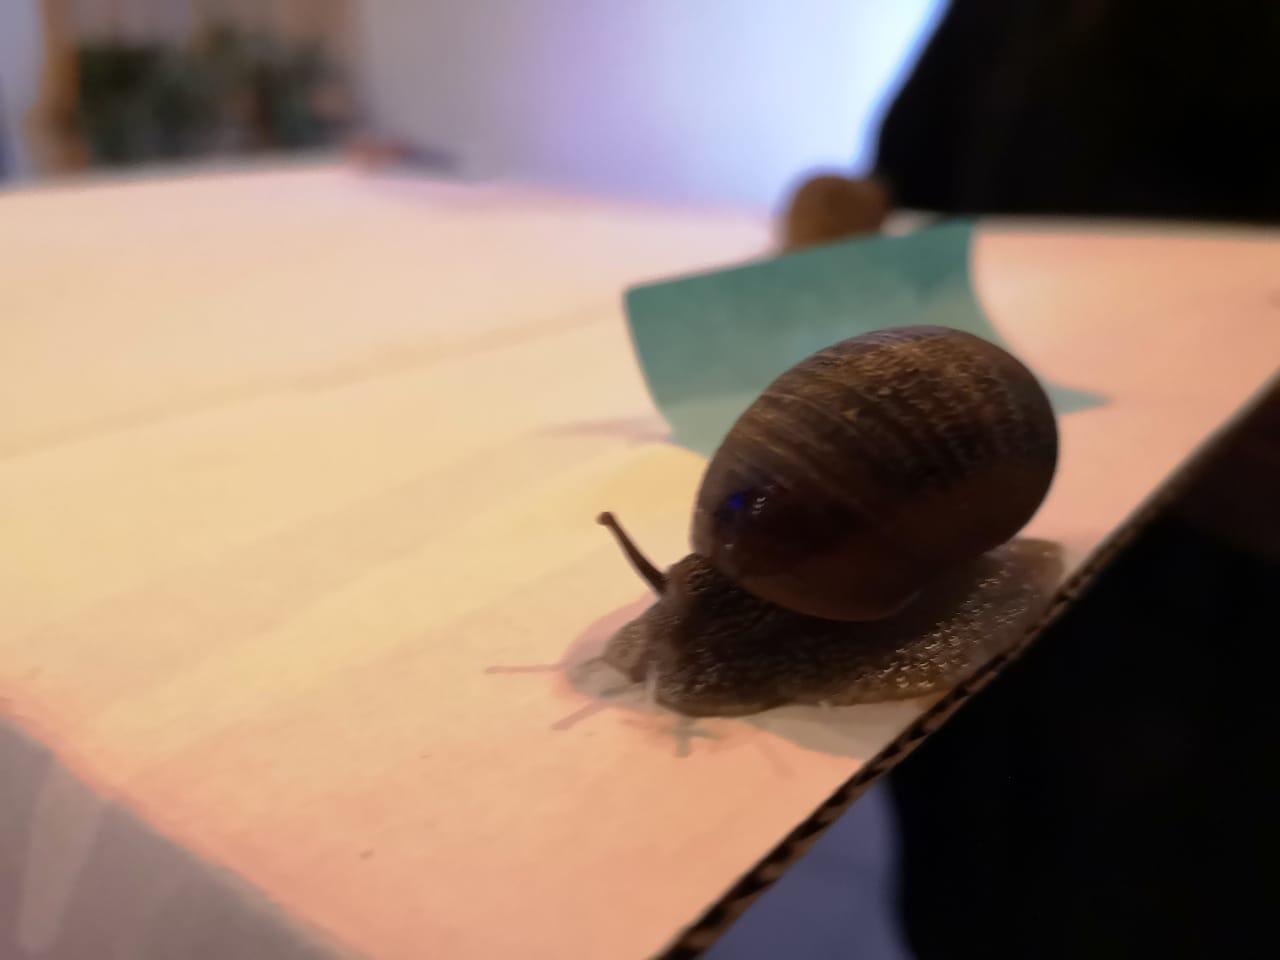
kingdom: Animalia
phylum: Mollusca
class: Gastropoda
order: Stylommatophora
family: Helicidae
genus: Cornu
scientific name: Cornu aspersum
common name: Brown garden snail
